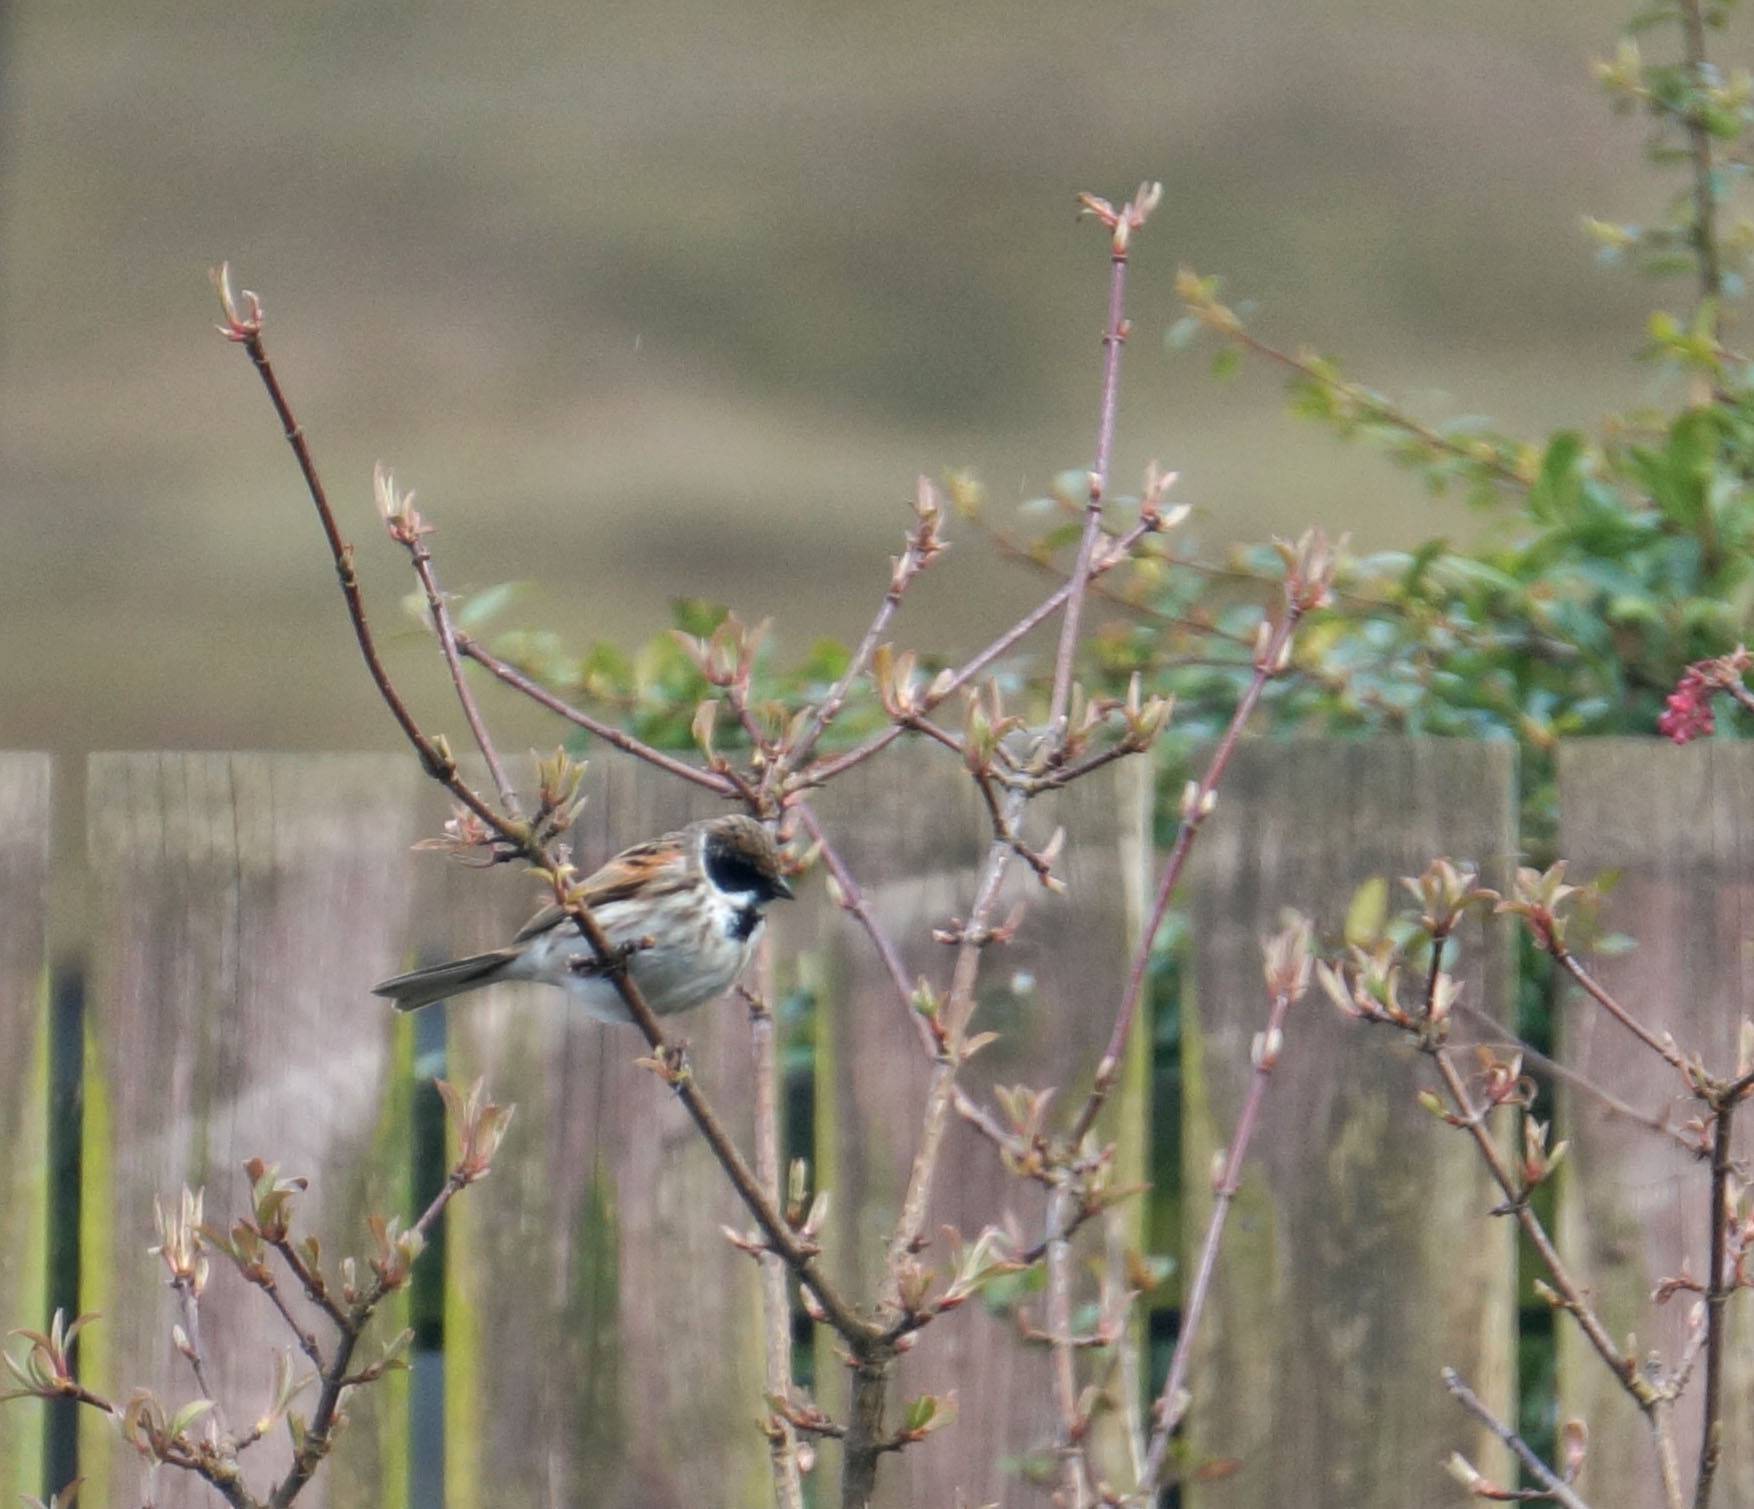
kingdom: Animalia
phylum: Chordata
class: Aves
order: Passeriformes
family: Emberizidae
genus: Emberiza
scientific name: Emberiza schoeniclus
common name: Reed bunting
